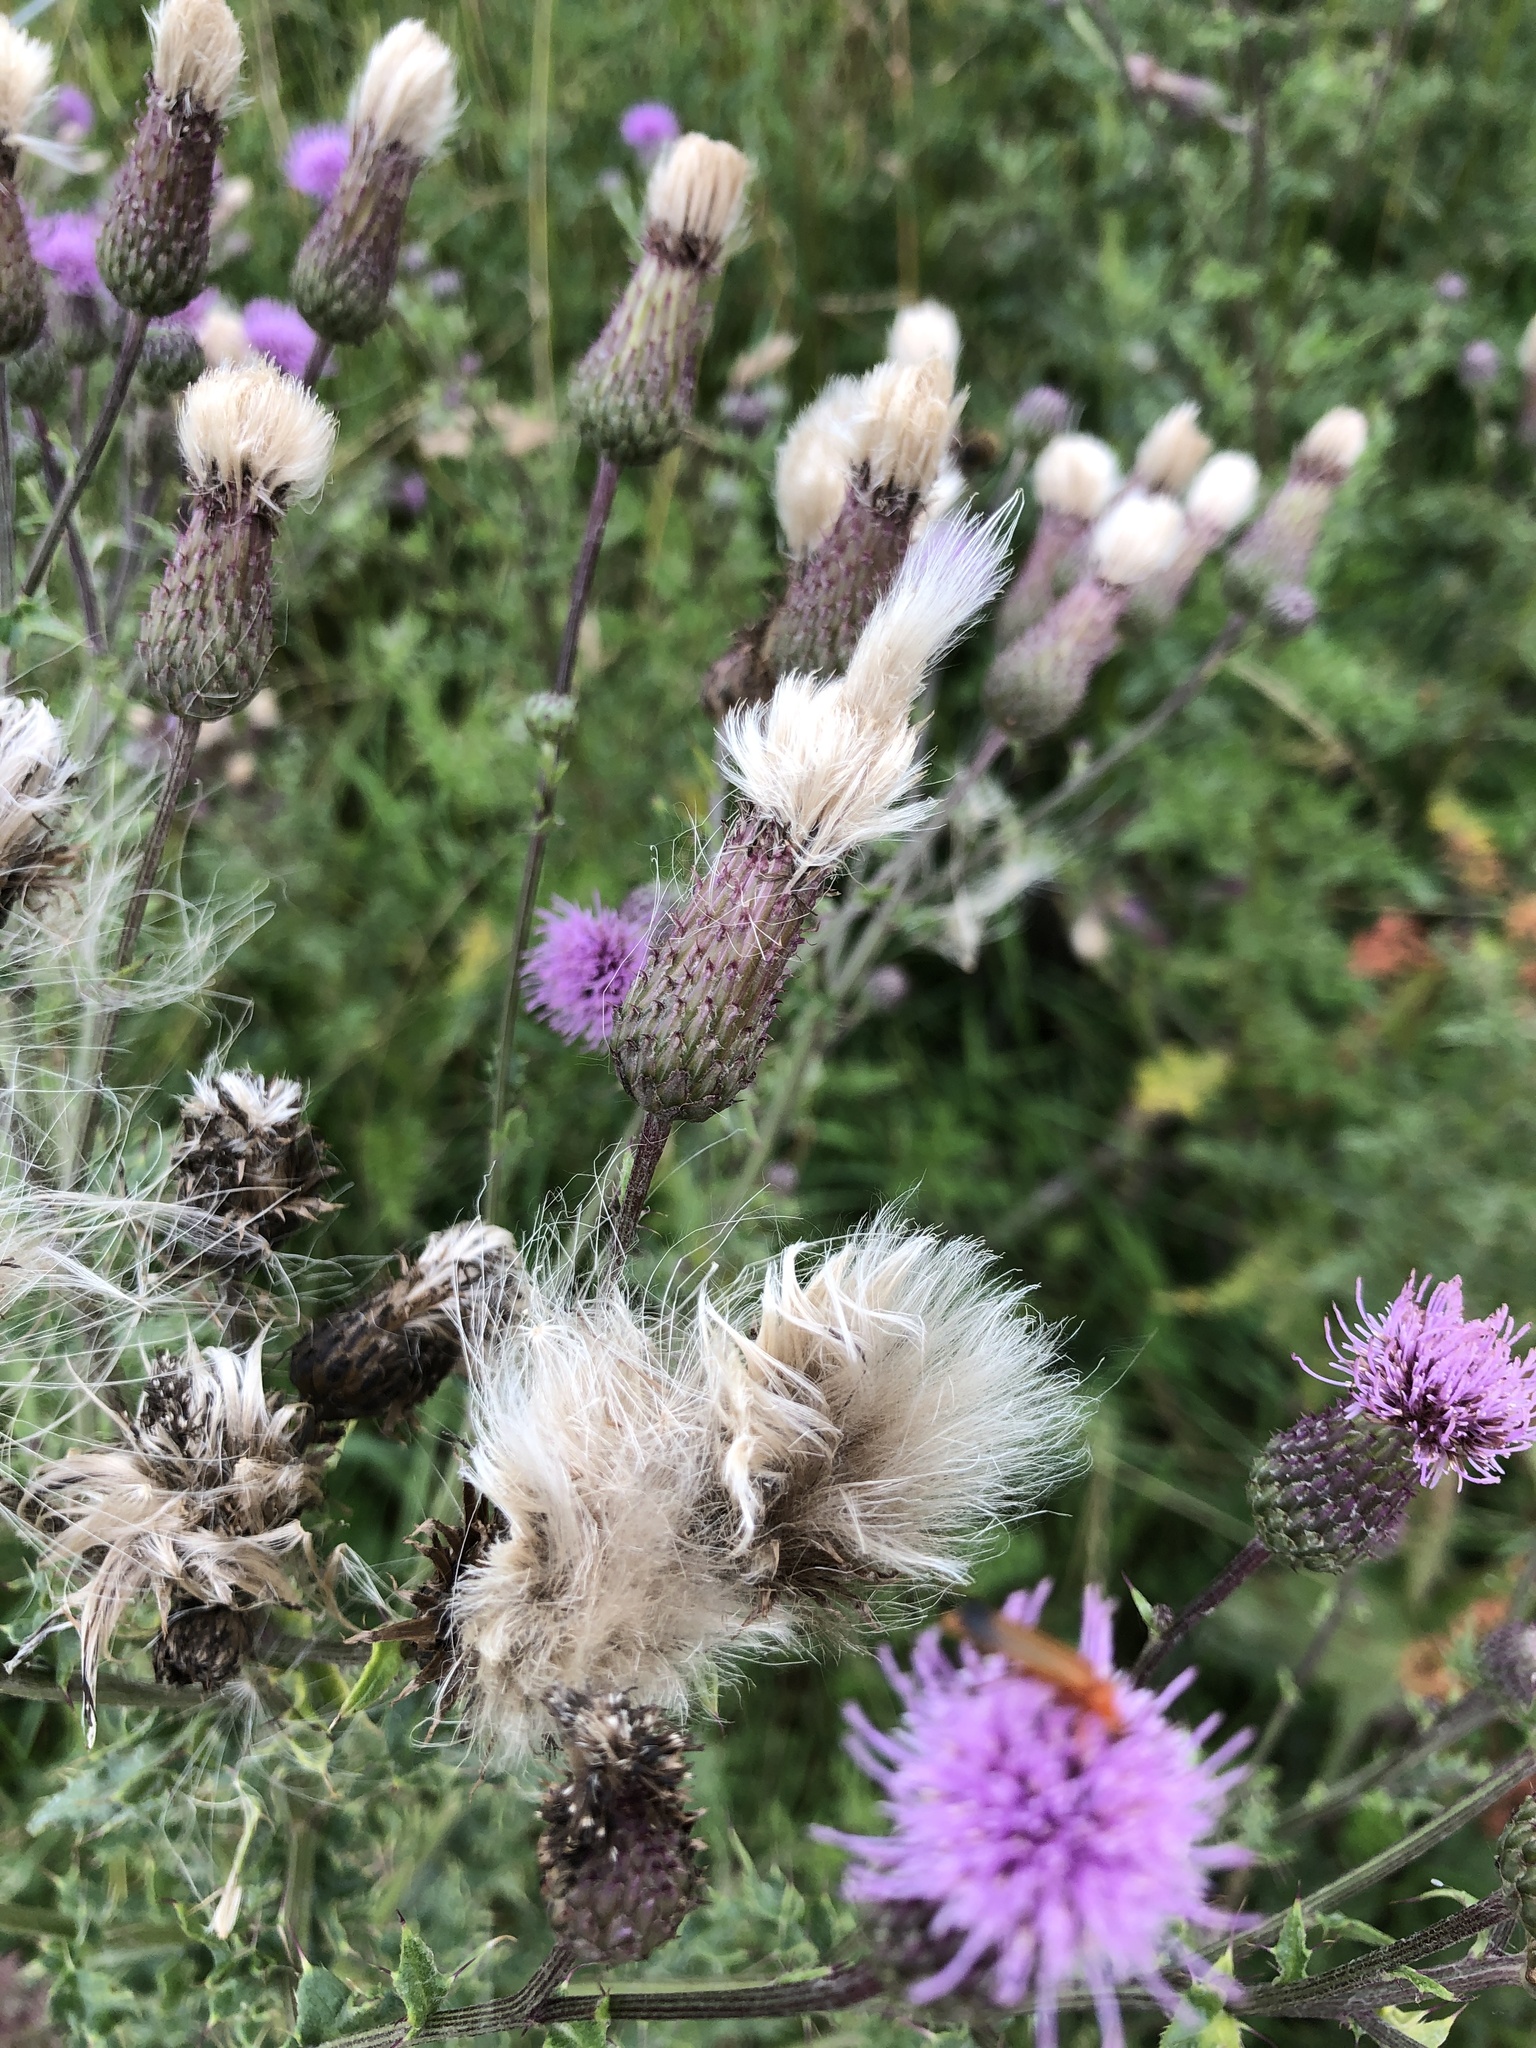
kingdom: Plantae
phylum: Tracheophyta
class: Magnoliopsida
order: Asterales
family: Asteraceae
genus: Cirsium
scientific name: Cirsium arvense
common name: Creeping thistle
